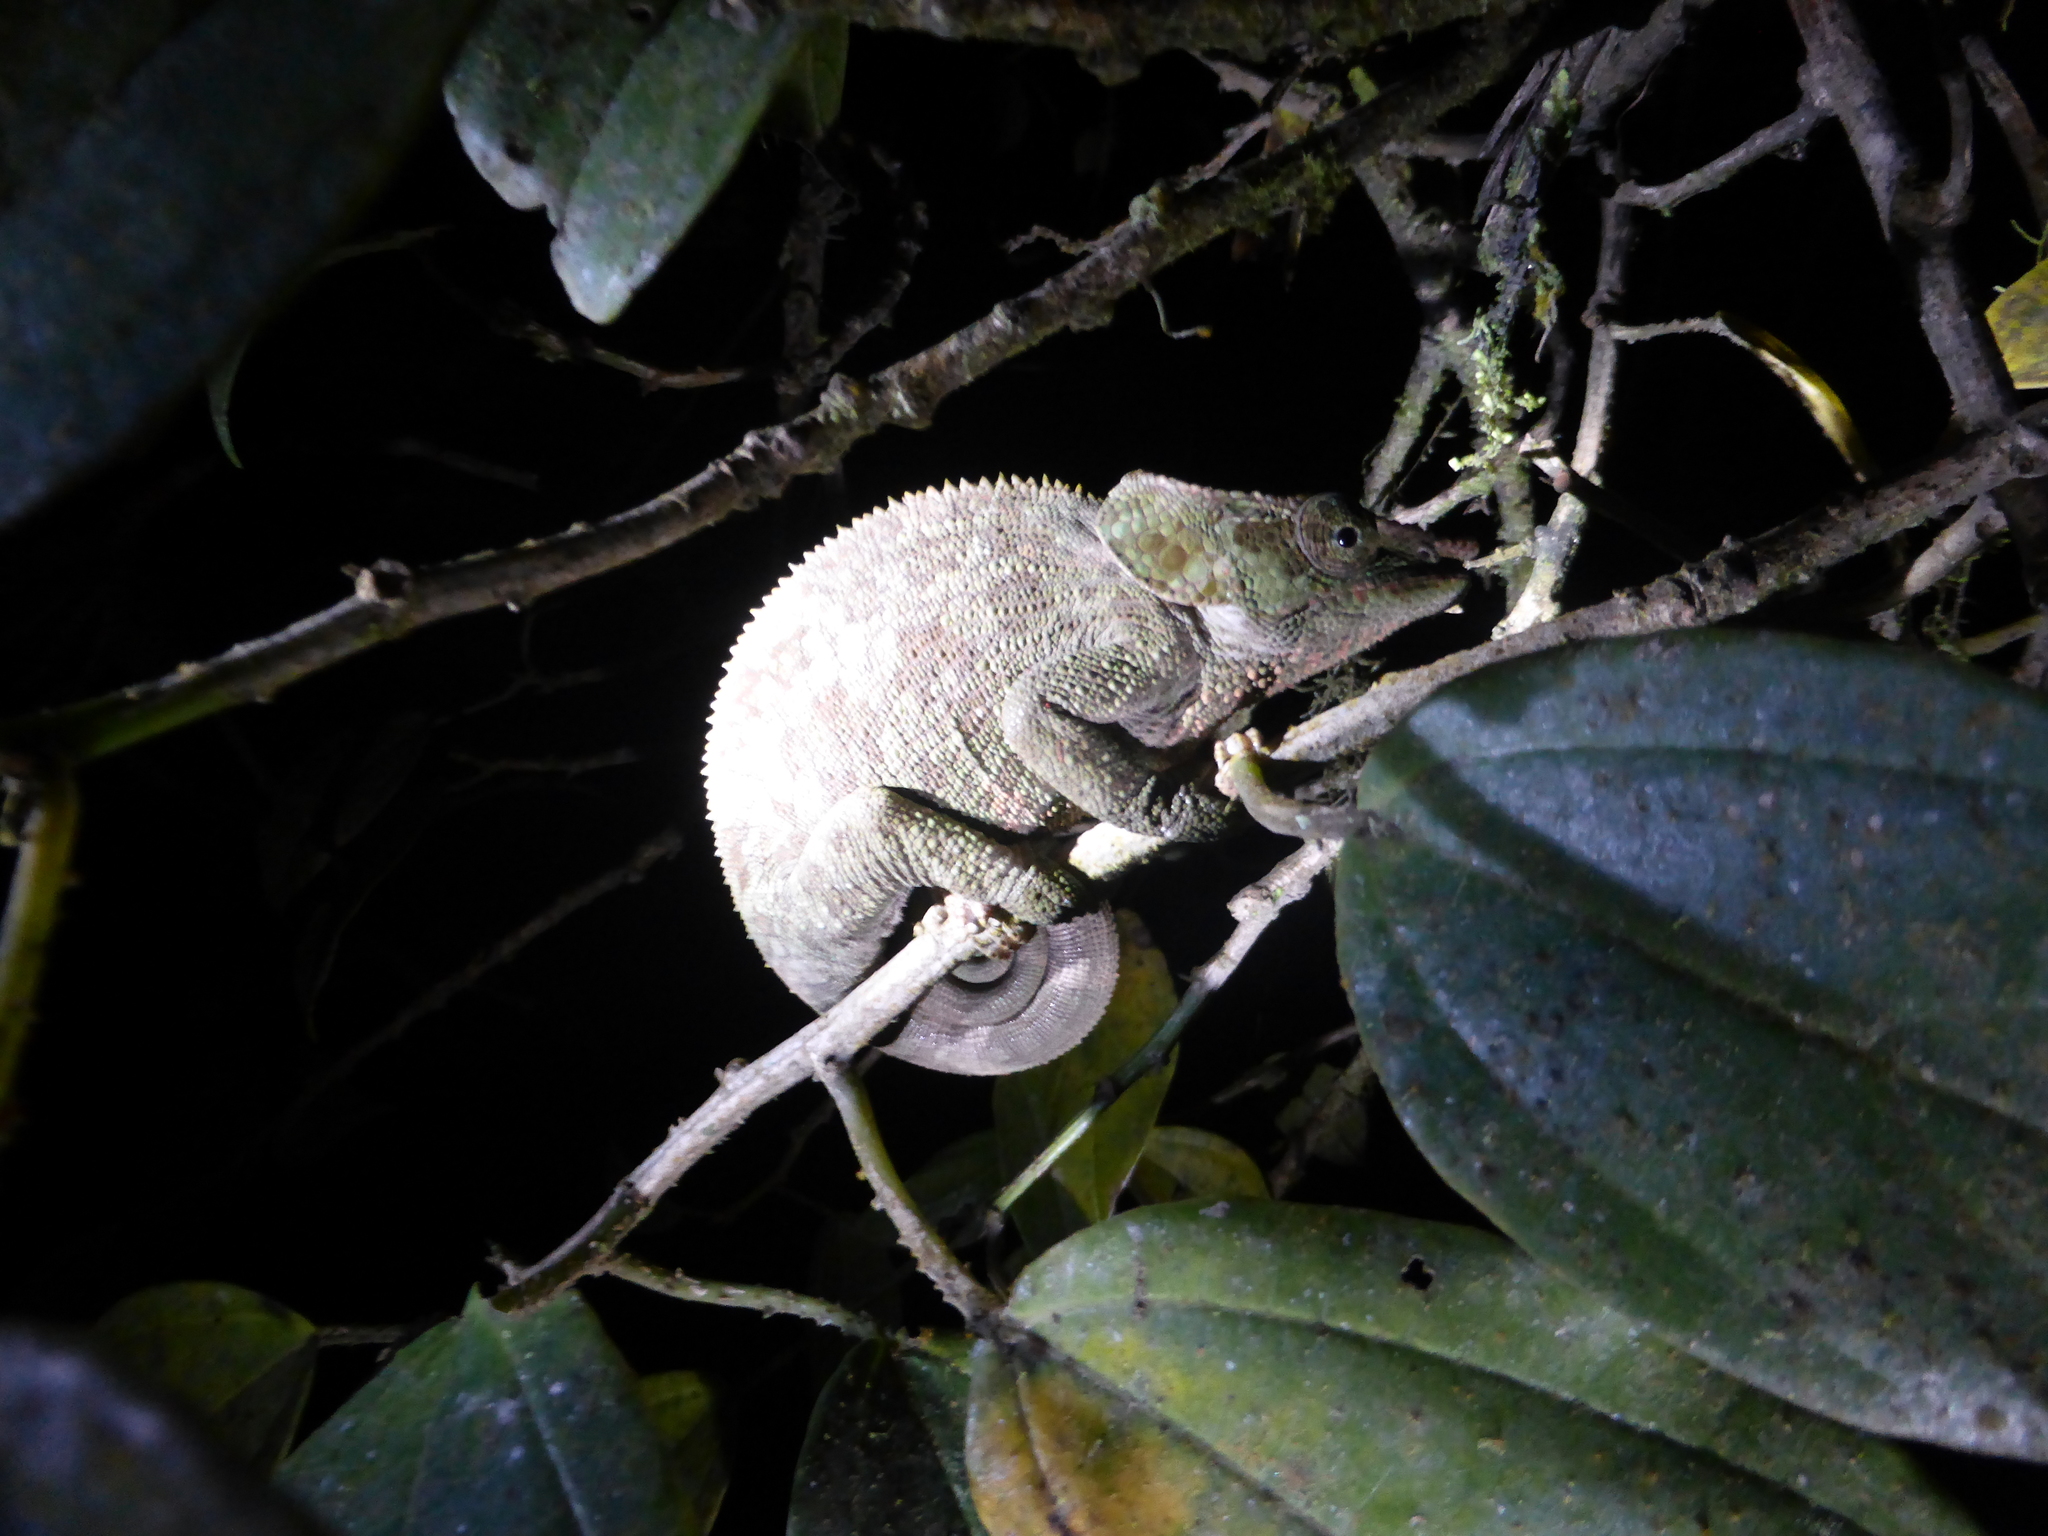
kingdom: Animalia
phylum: Chordata
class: Squamata
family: Chamaeleonidae
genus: Calumma
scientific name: Calumma crypticum
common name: Cryptic chameleon
